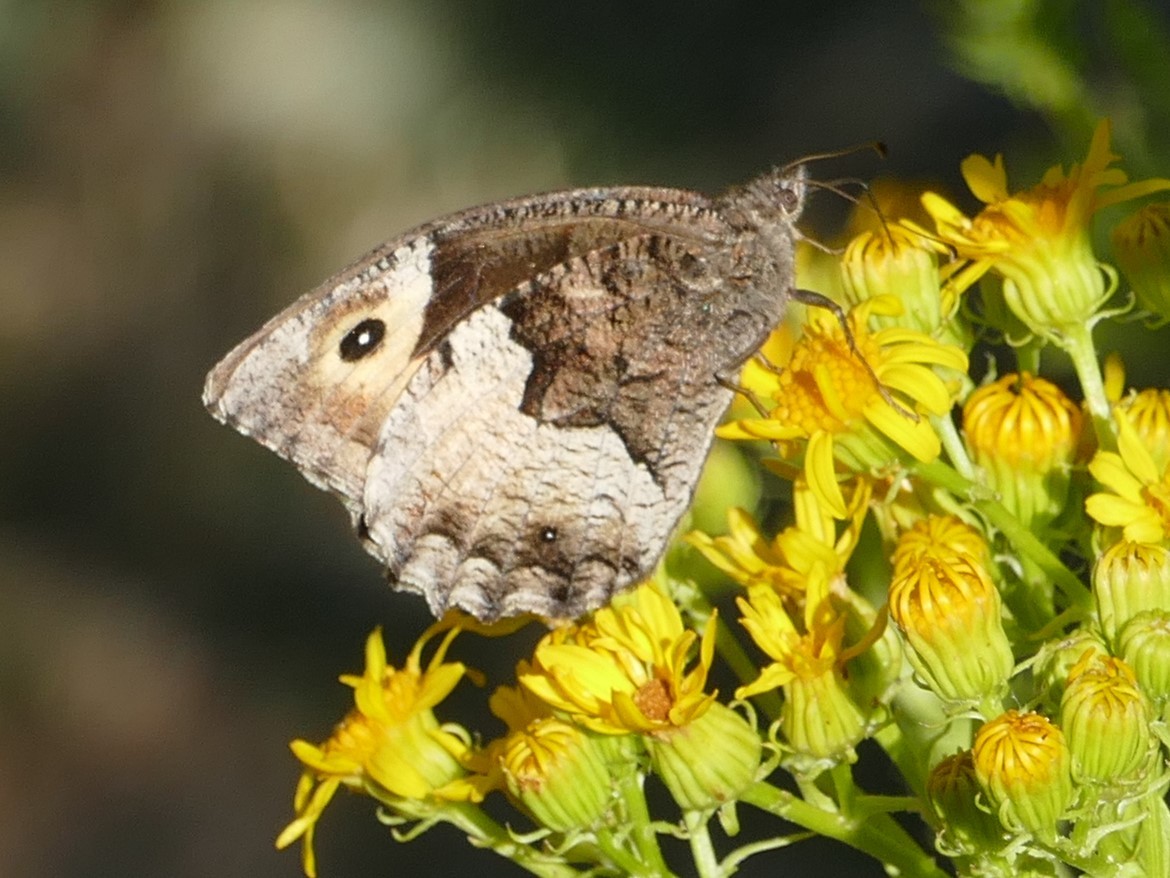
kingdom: Animalia
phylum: Arthropoda
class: Insecta
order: Lepidoptera
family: Nymphalidae
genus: Hipparchia
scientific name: Hipparchia hermione
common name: Rock grayling
